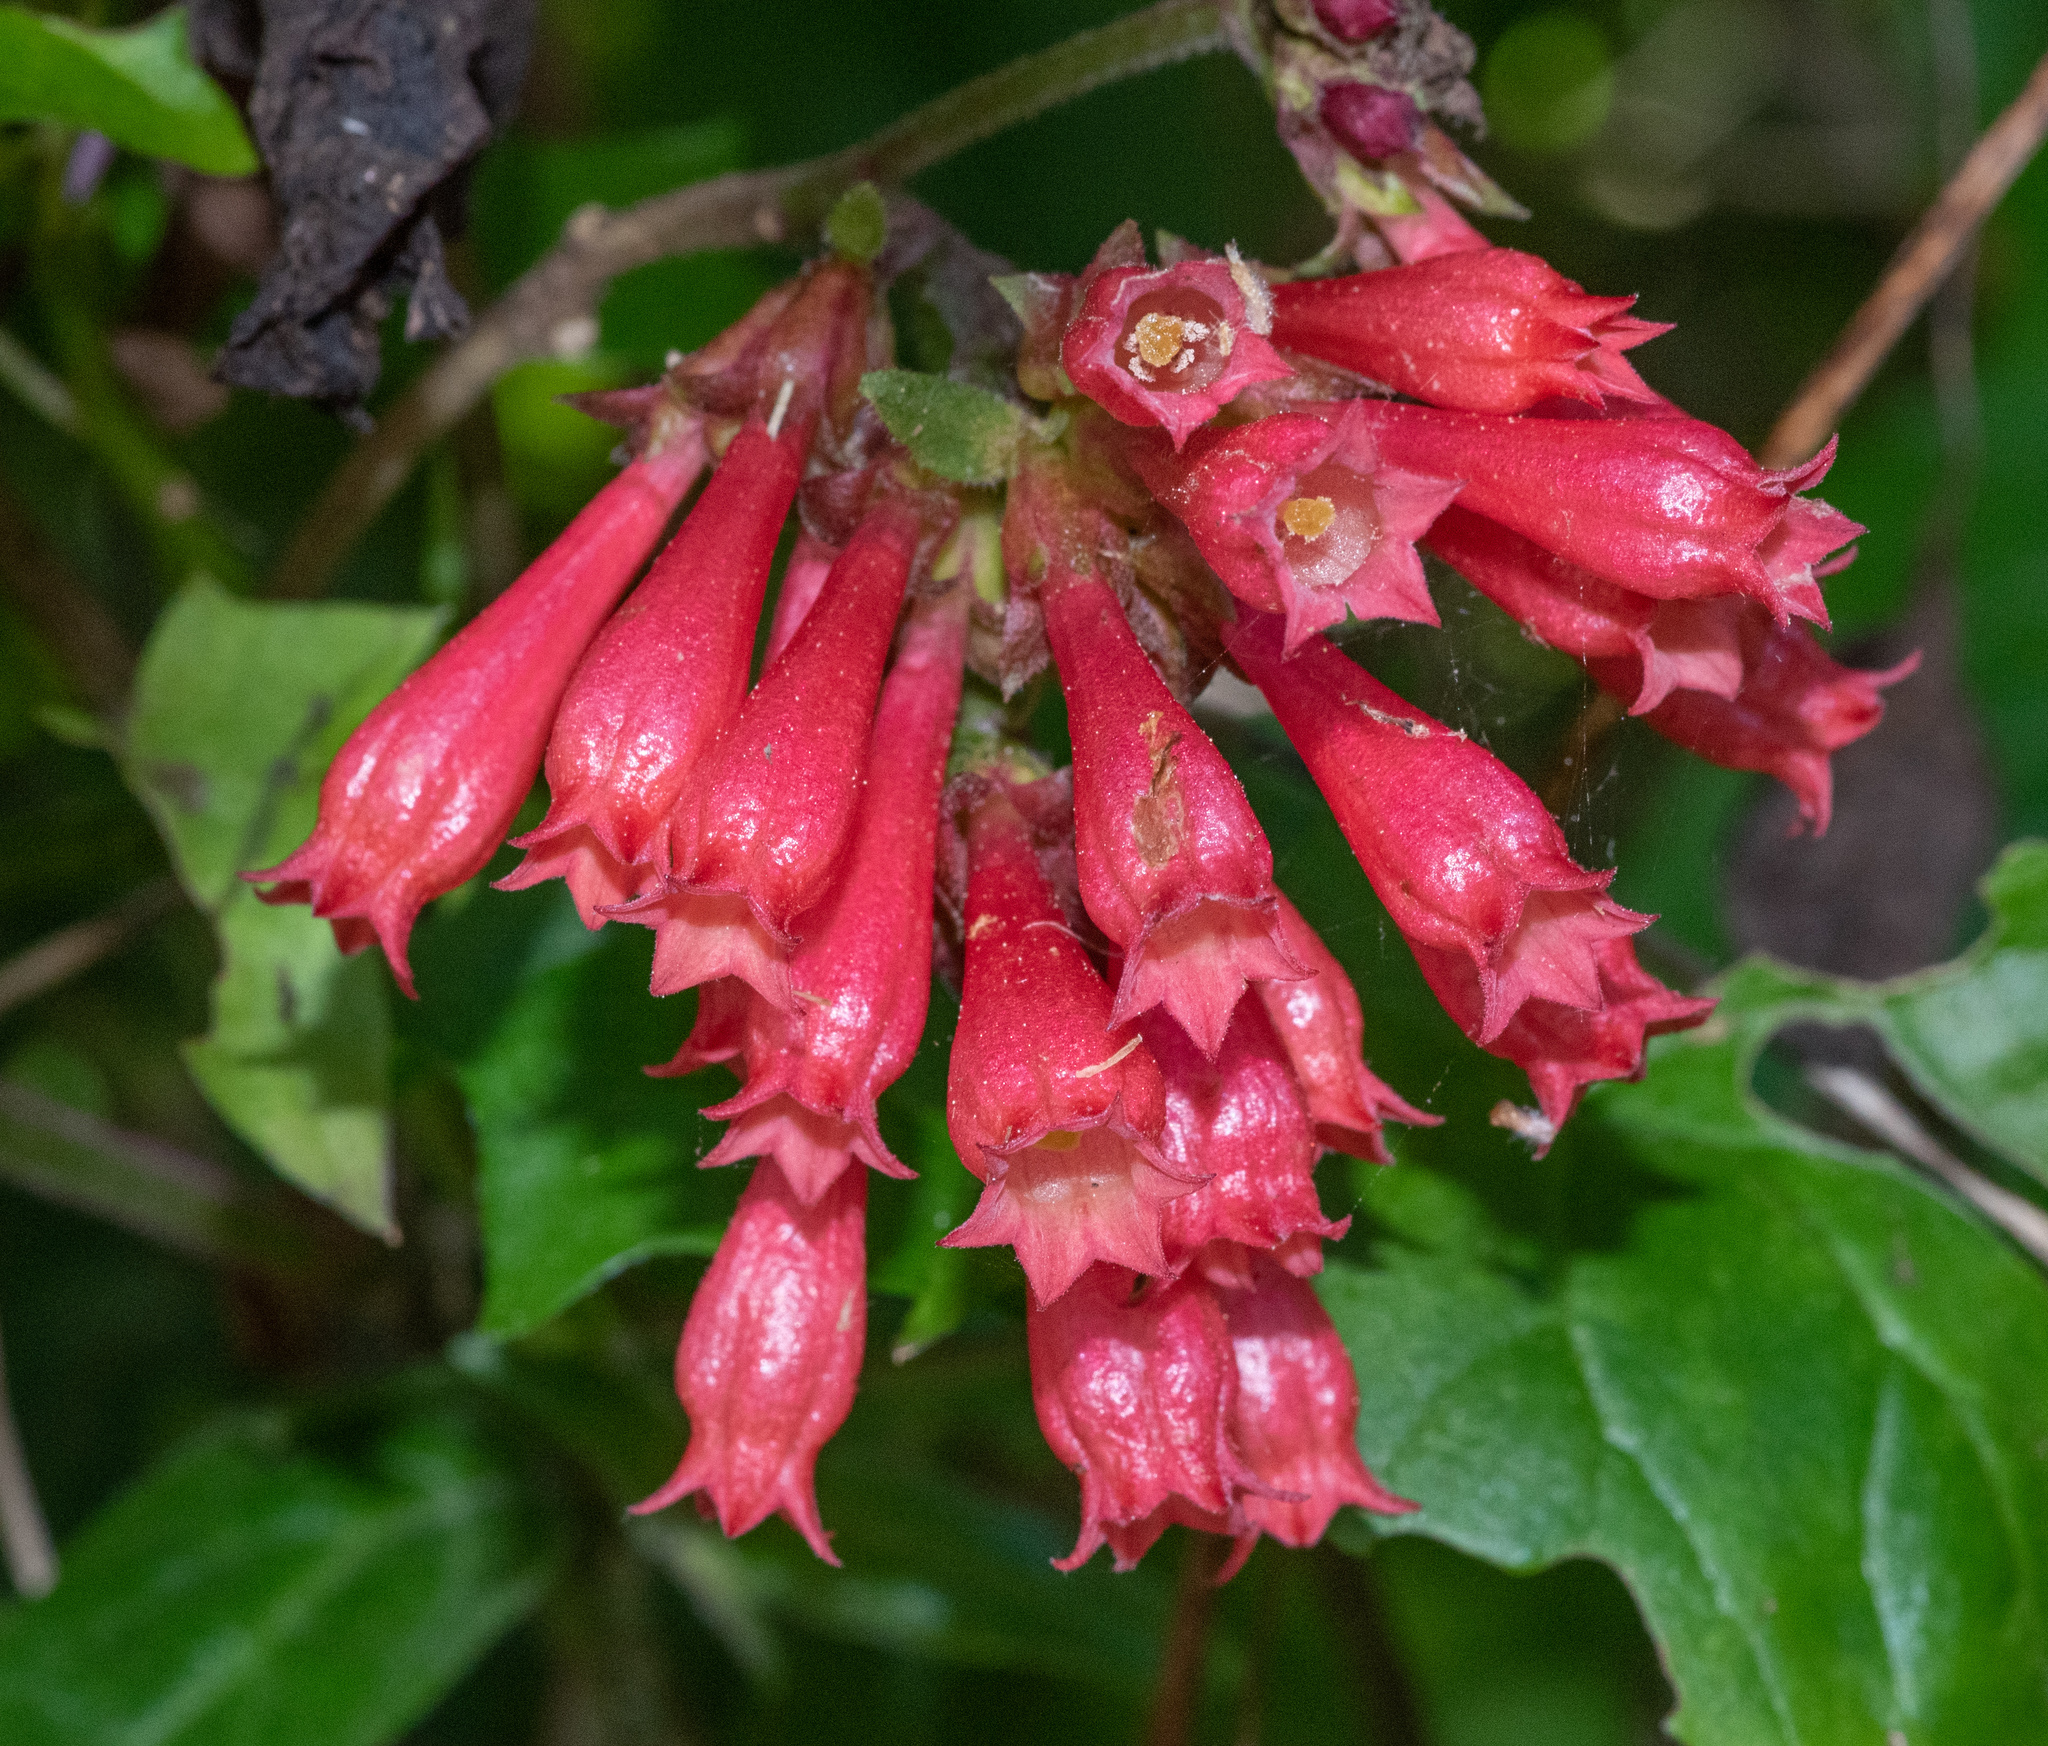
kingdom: Plantae
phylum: Tracheophyta
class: Magnoliopsida
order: Solanales
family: Solanaceae
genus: Cestrum
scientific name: Cestrum elegans
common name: Crimson cestrum
